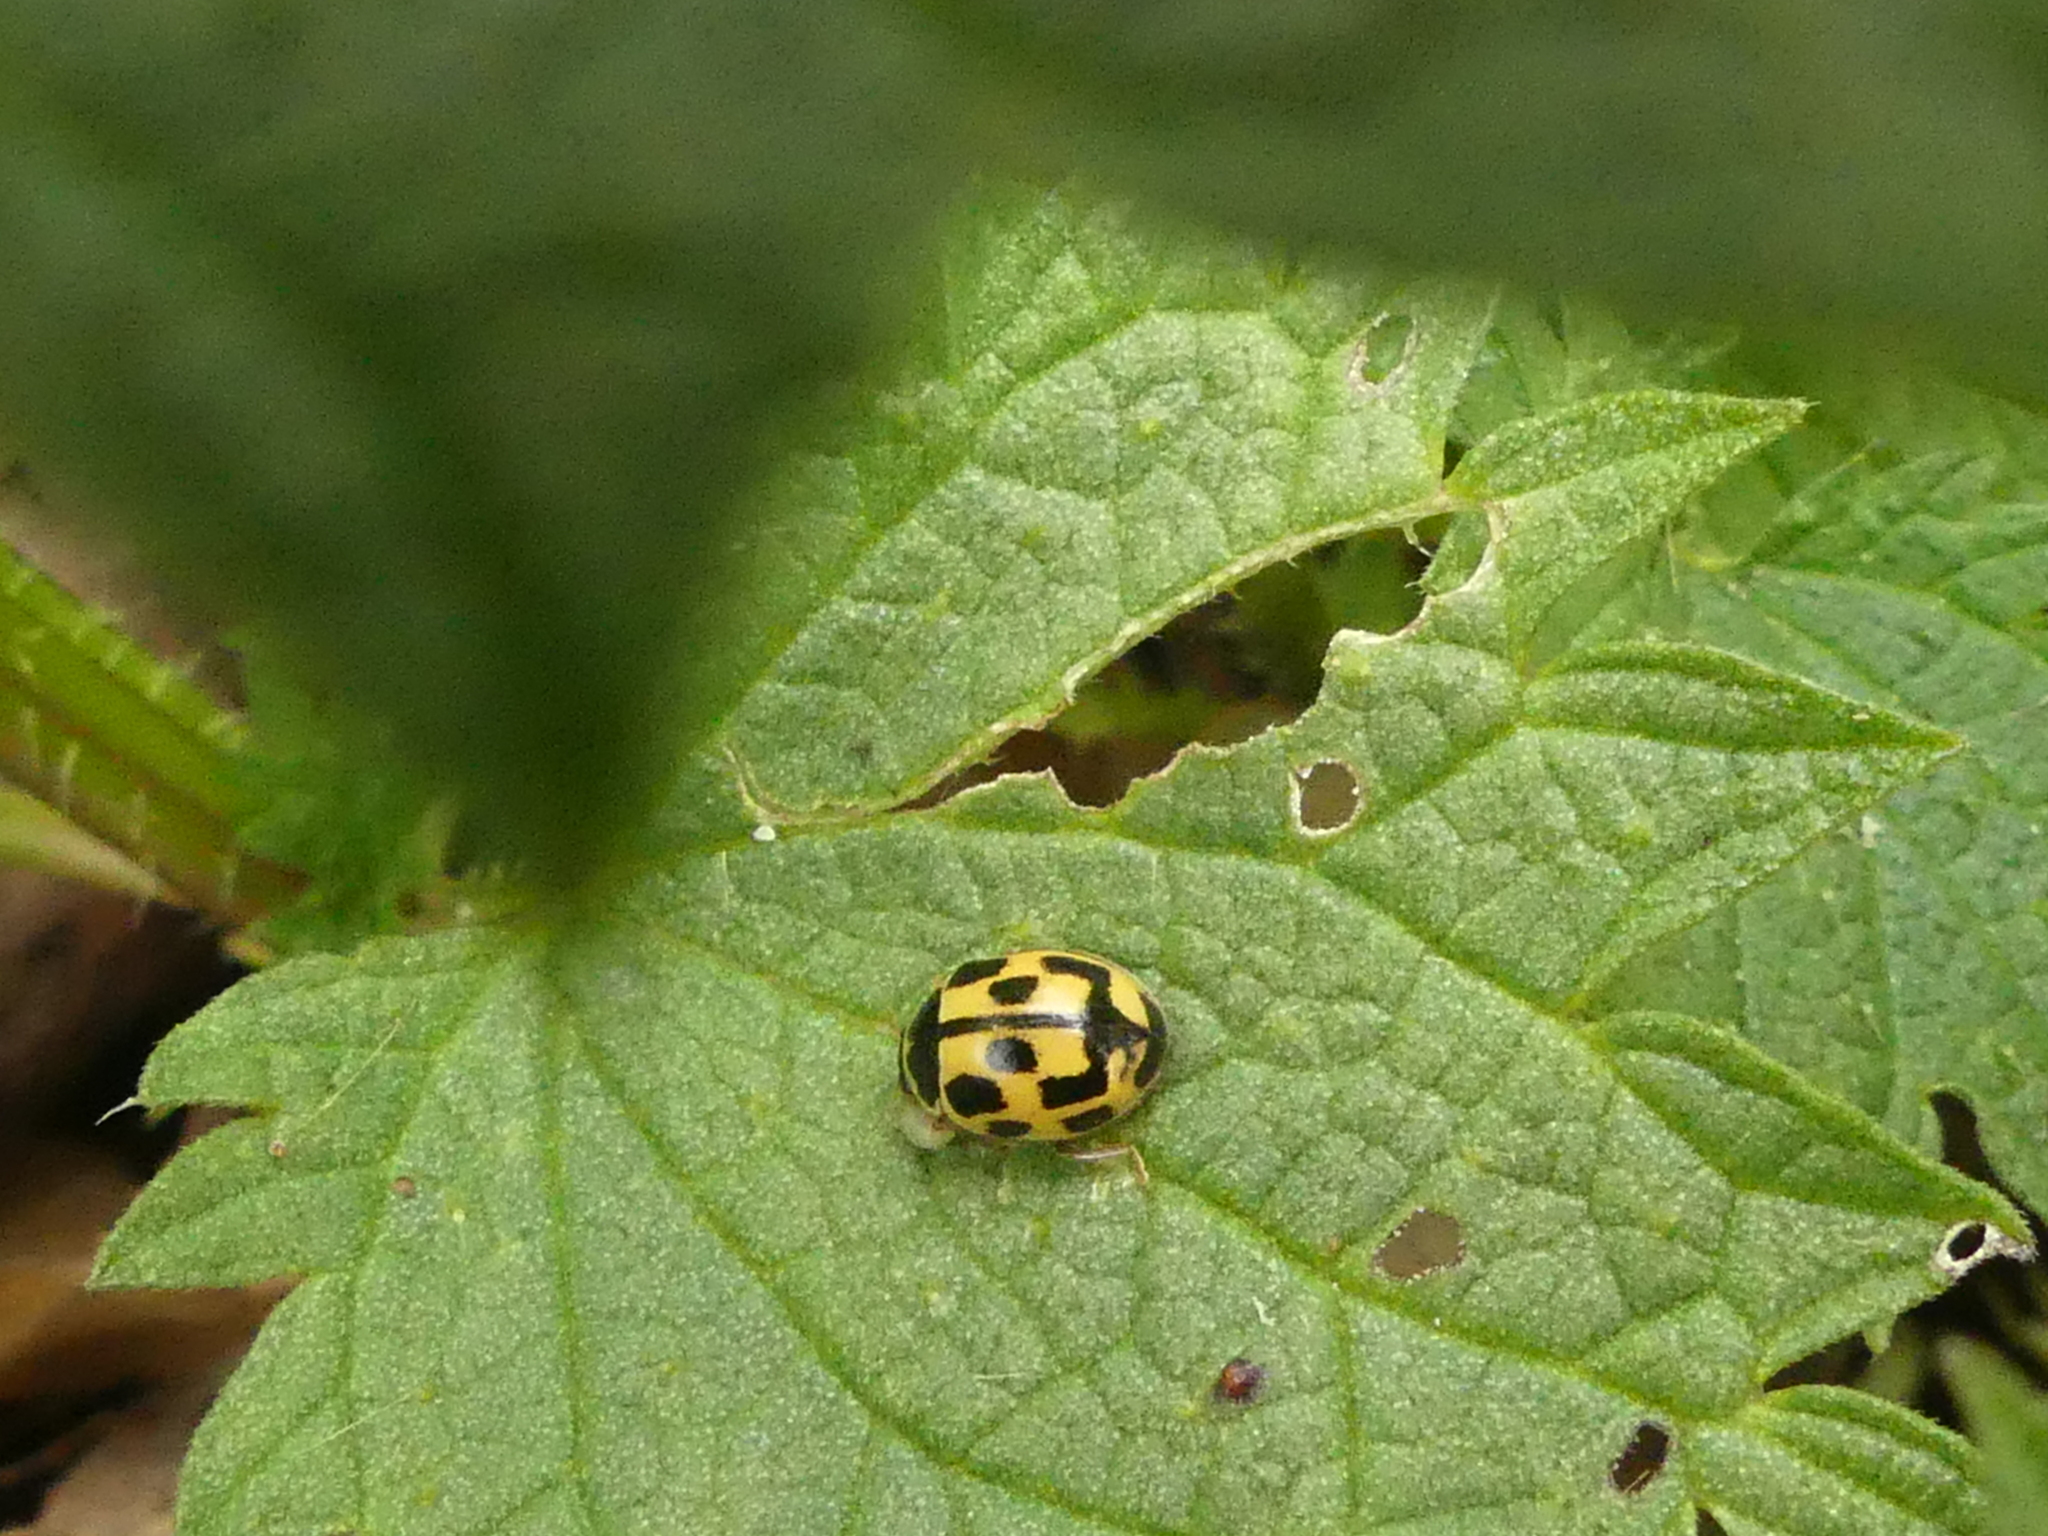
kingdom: Animalia
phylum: Arthropoda
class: Insecta
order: Coleoptera
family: Coccinellidae
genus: Propylaea
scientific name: Propylaea quatuordecimpunctata
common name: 14-spotted ladybird beetle
